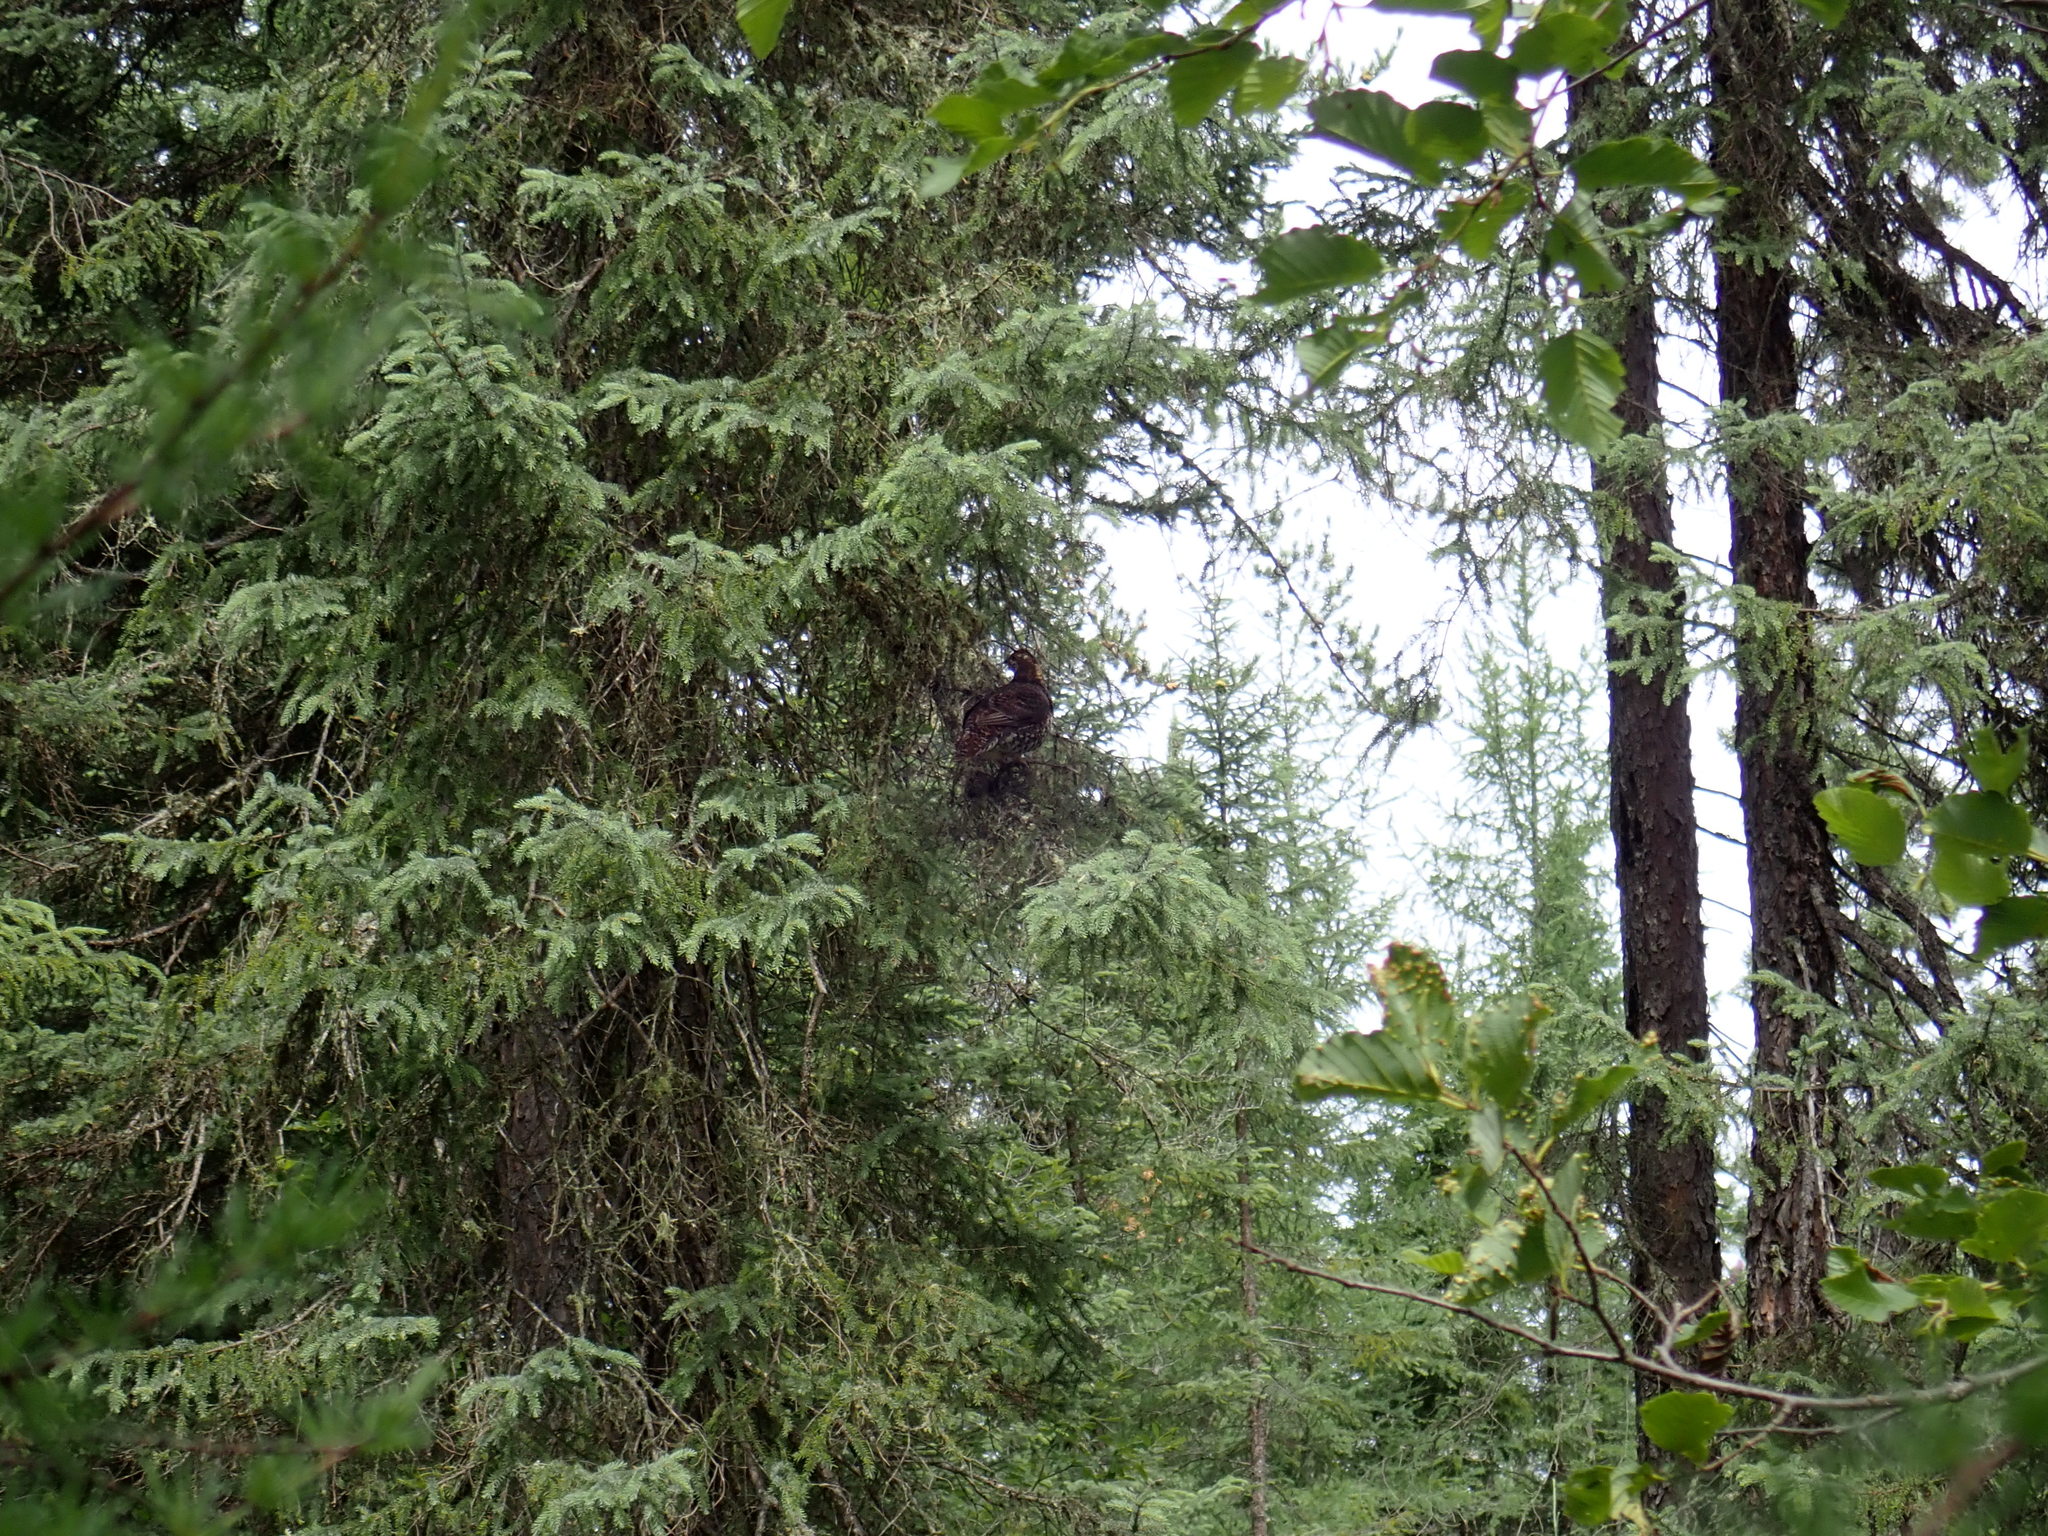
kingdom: Animalia
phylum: Chordata
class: Aves
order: Galliformes
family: Phasianidae
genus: Canachites
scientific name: Canachites canadensis
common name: Spruce grouse
